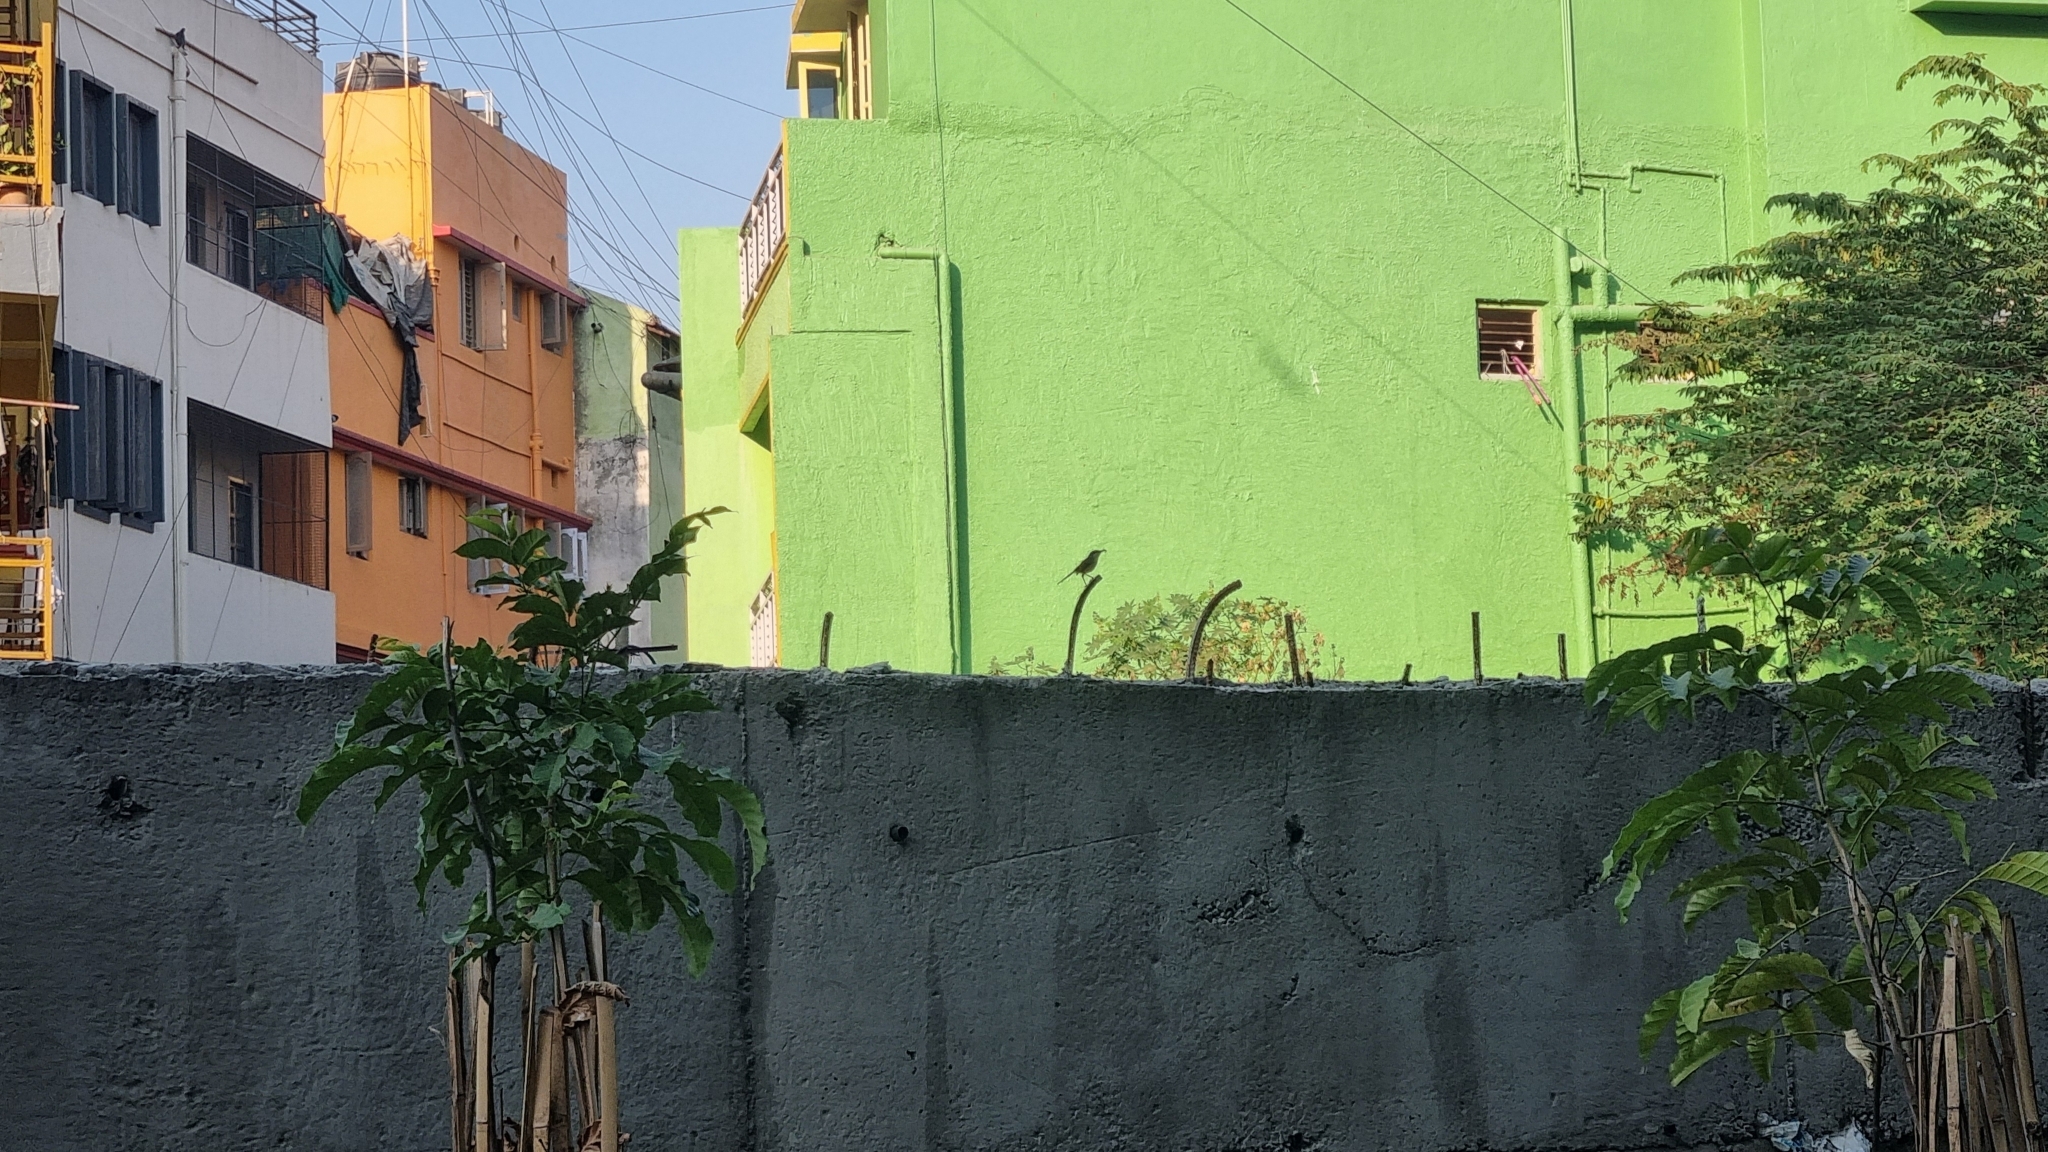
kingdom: Animalia
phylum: Chordata
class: Aves
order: Passeriformes
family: Cisticolidae
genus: Prinia
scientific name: Prinia socialis
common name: Ashy prinia
